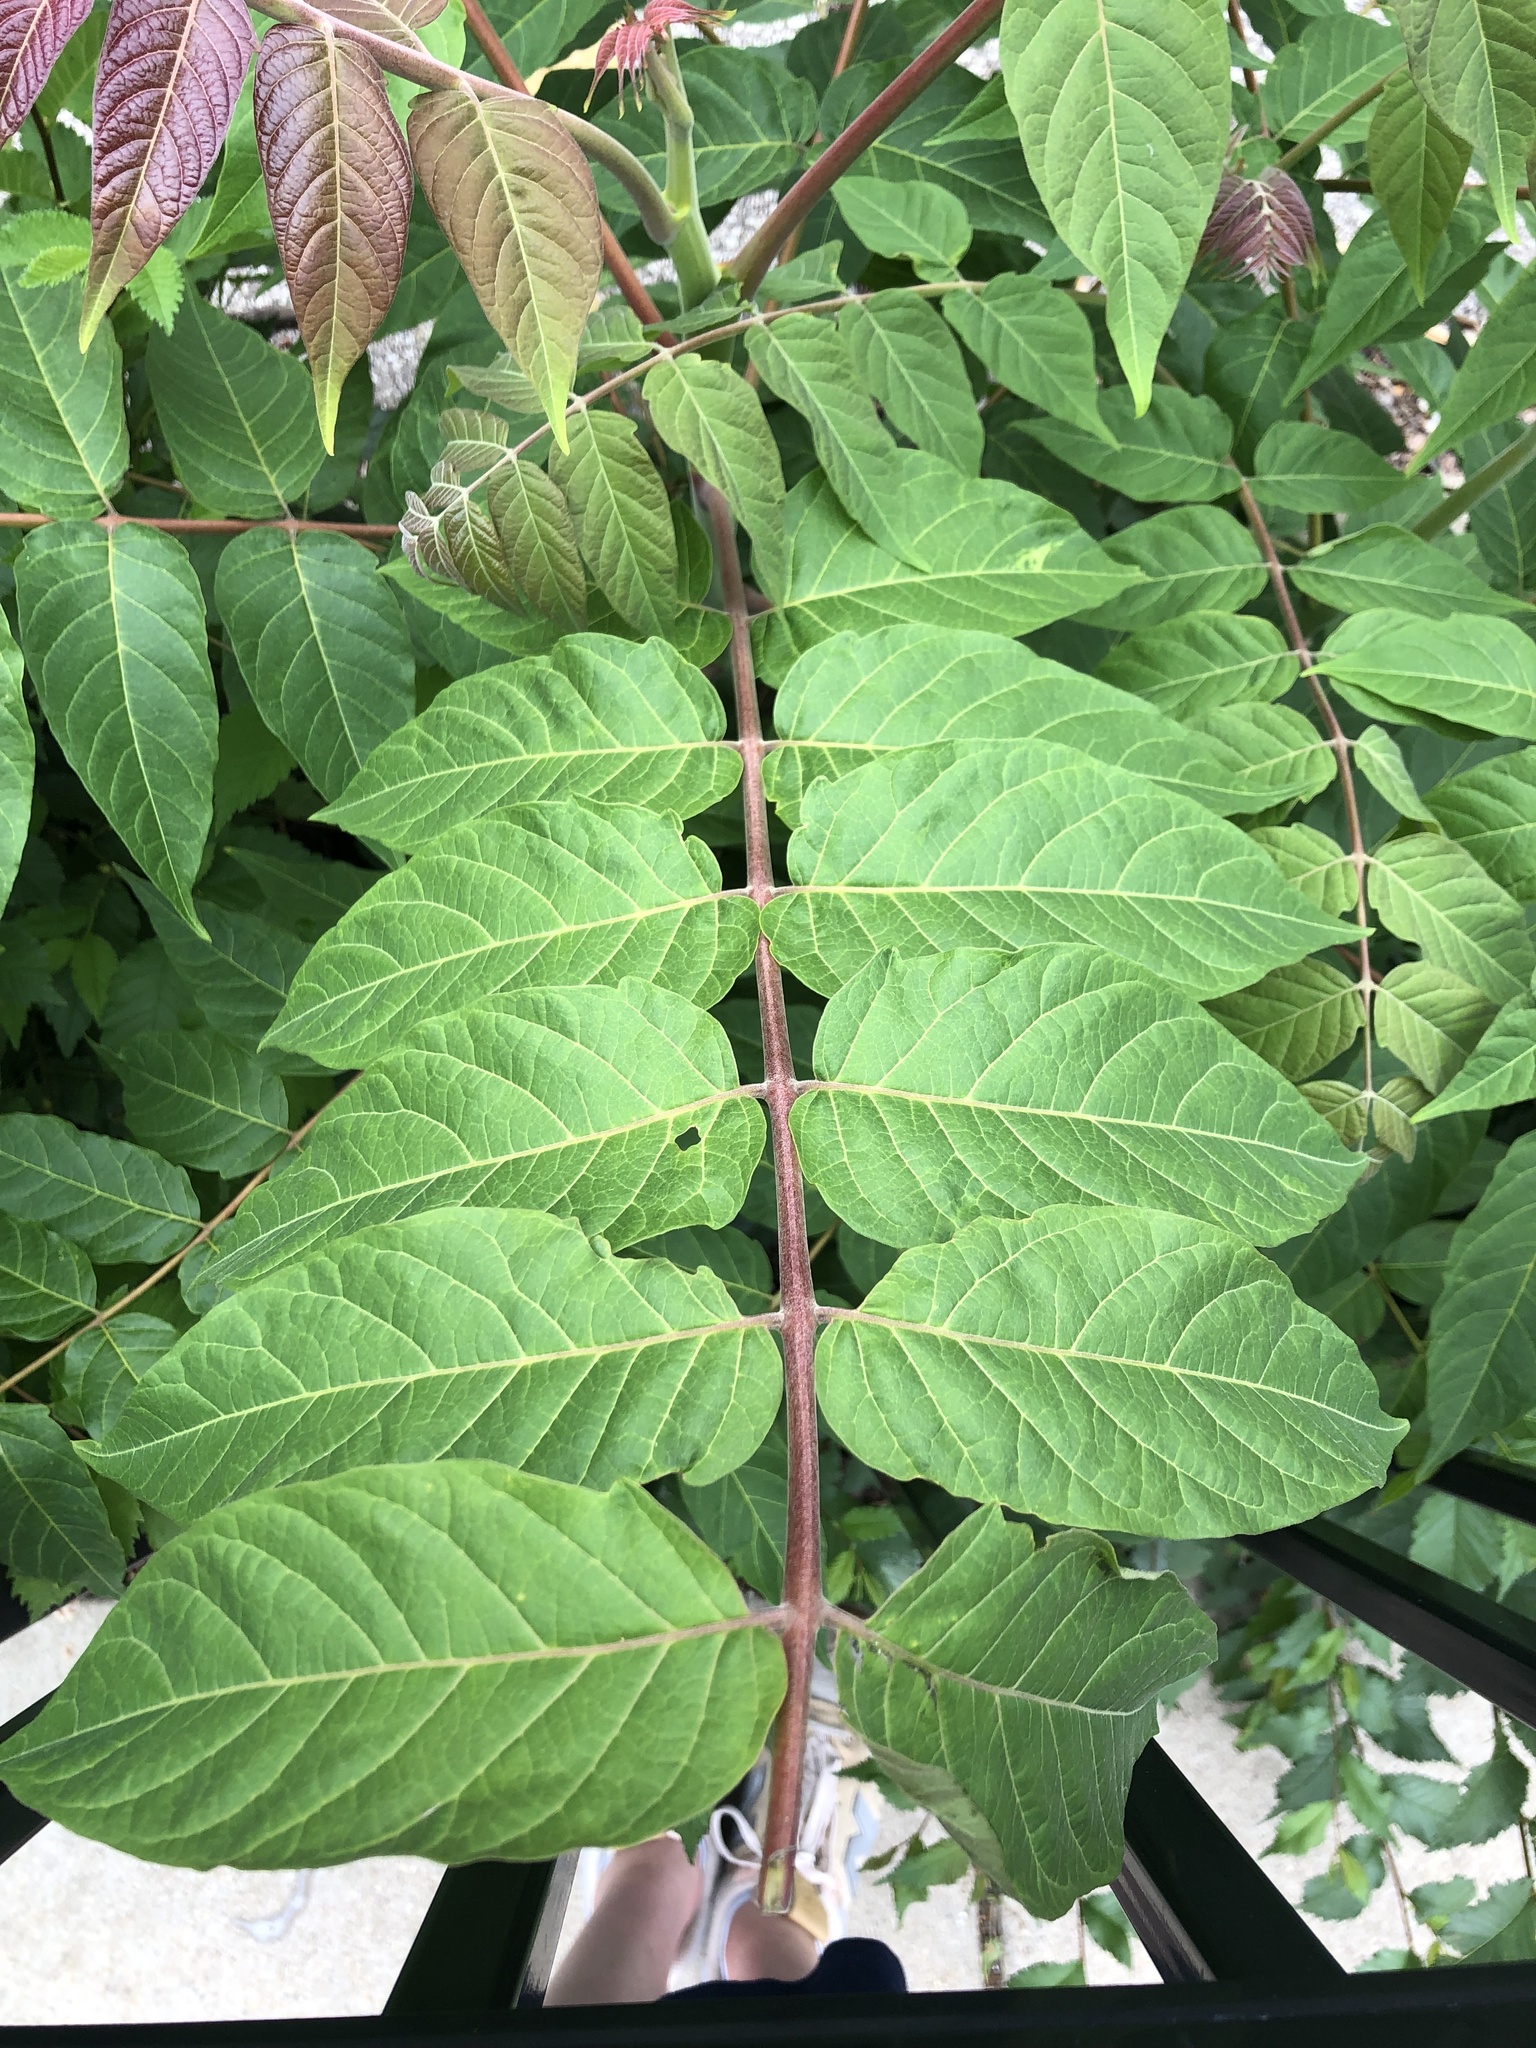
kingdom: Plantae
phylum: Tracheophyta
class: Magnoliopsida
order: Sapindales
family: Simaroubaceae
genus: Ailanthus
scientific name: Ailanthus altissima
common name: Tree-of-heaven
